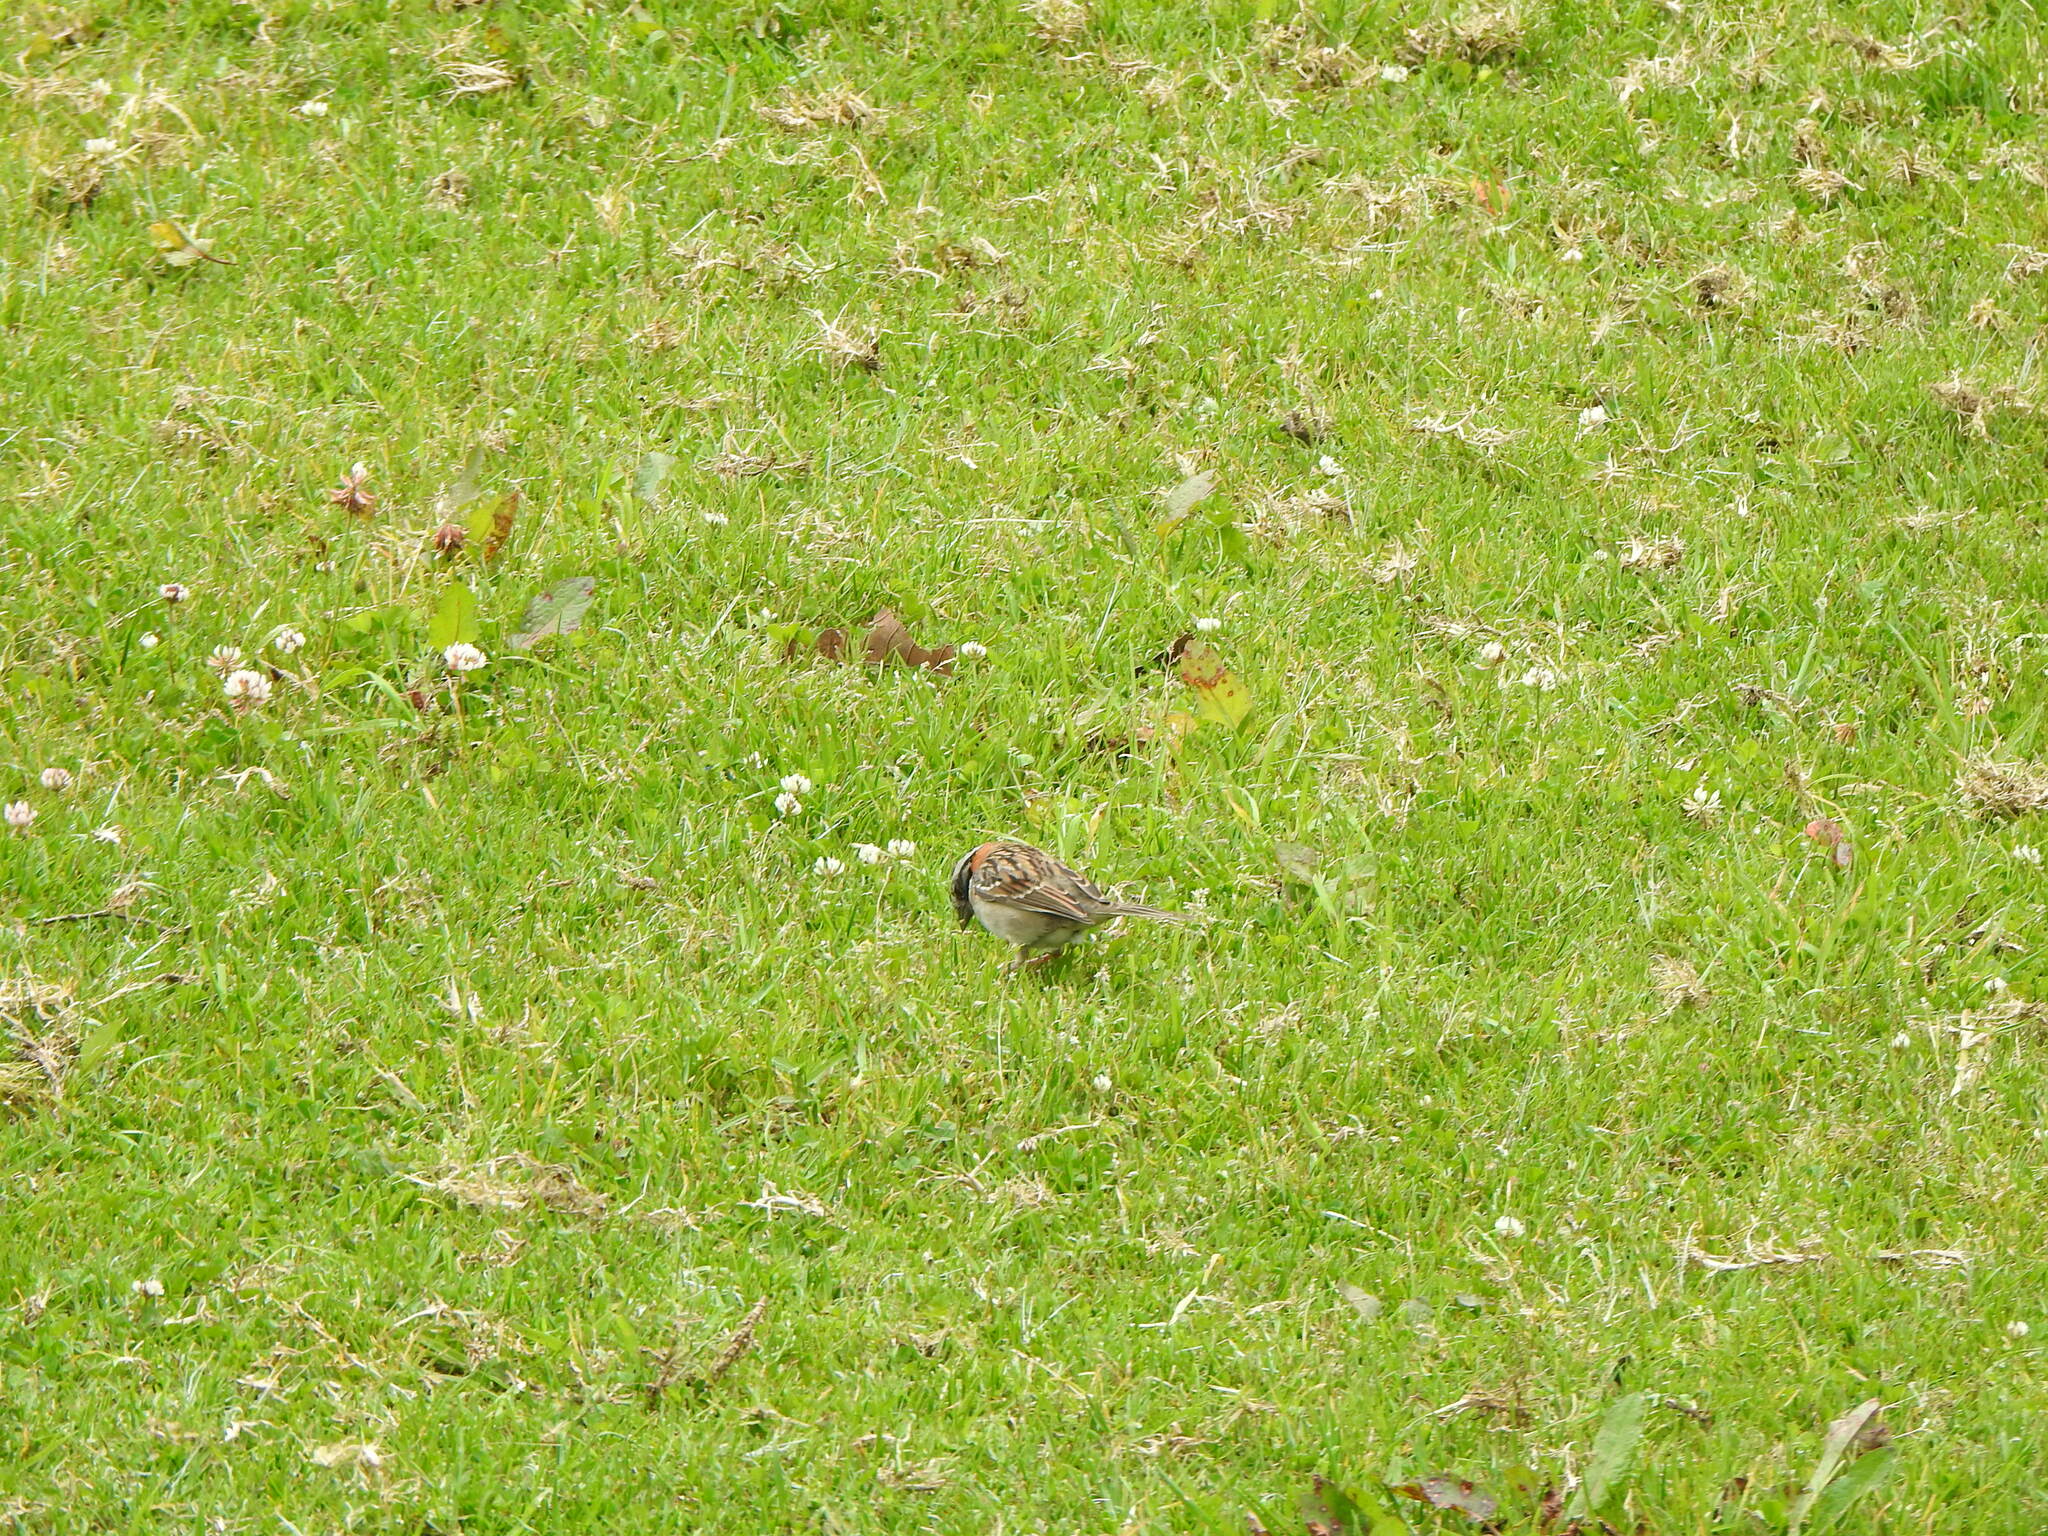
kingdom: Animalia
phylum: Chordata
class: Aves
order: Passeriformes
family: Passerellidae
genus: Zonotrichia
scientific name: Zonotrichia capensis
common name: Rufous-collared sparrow
